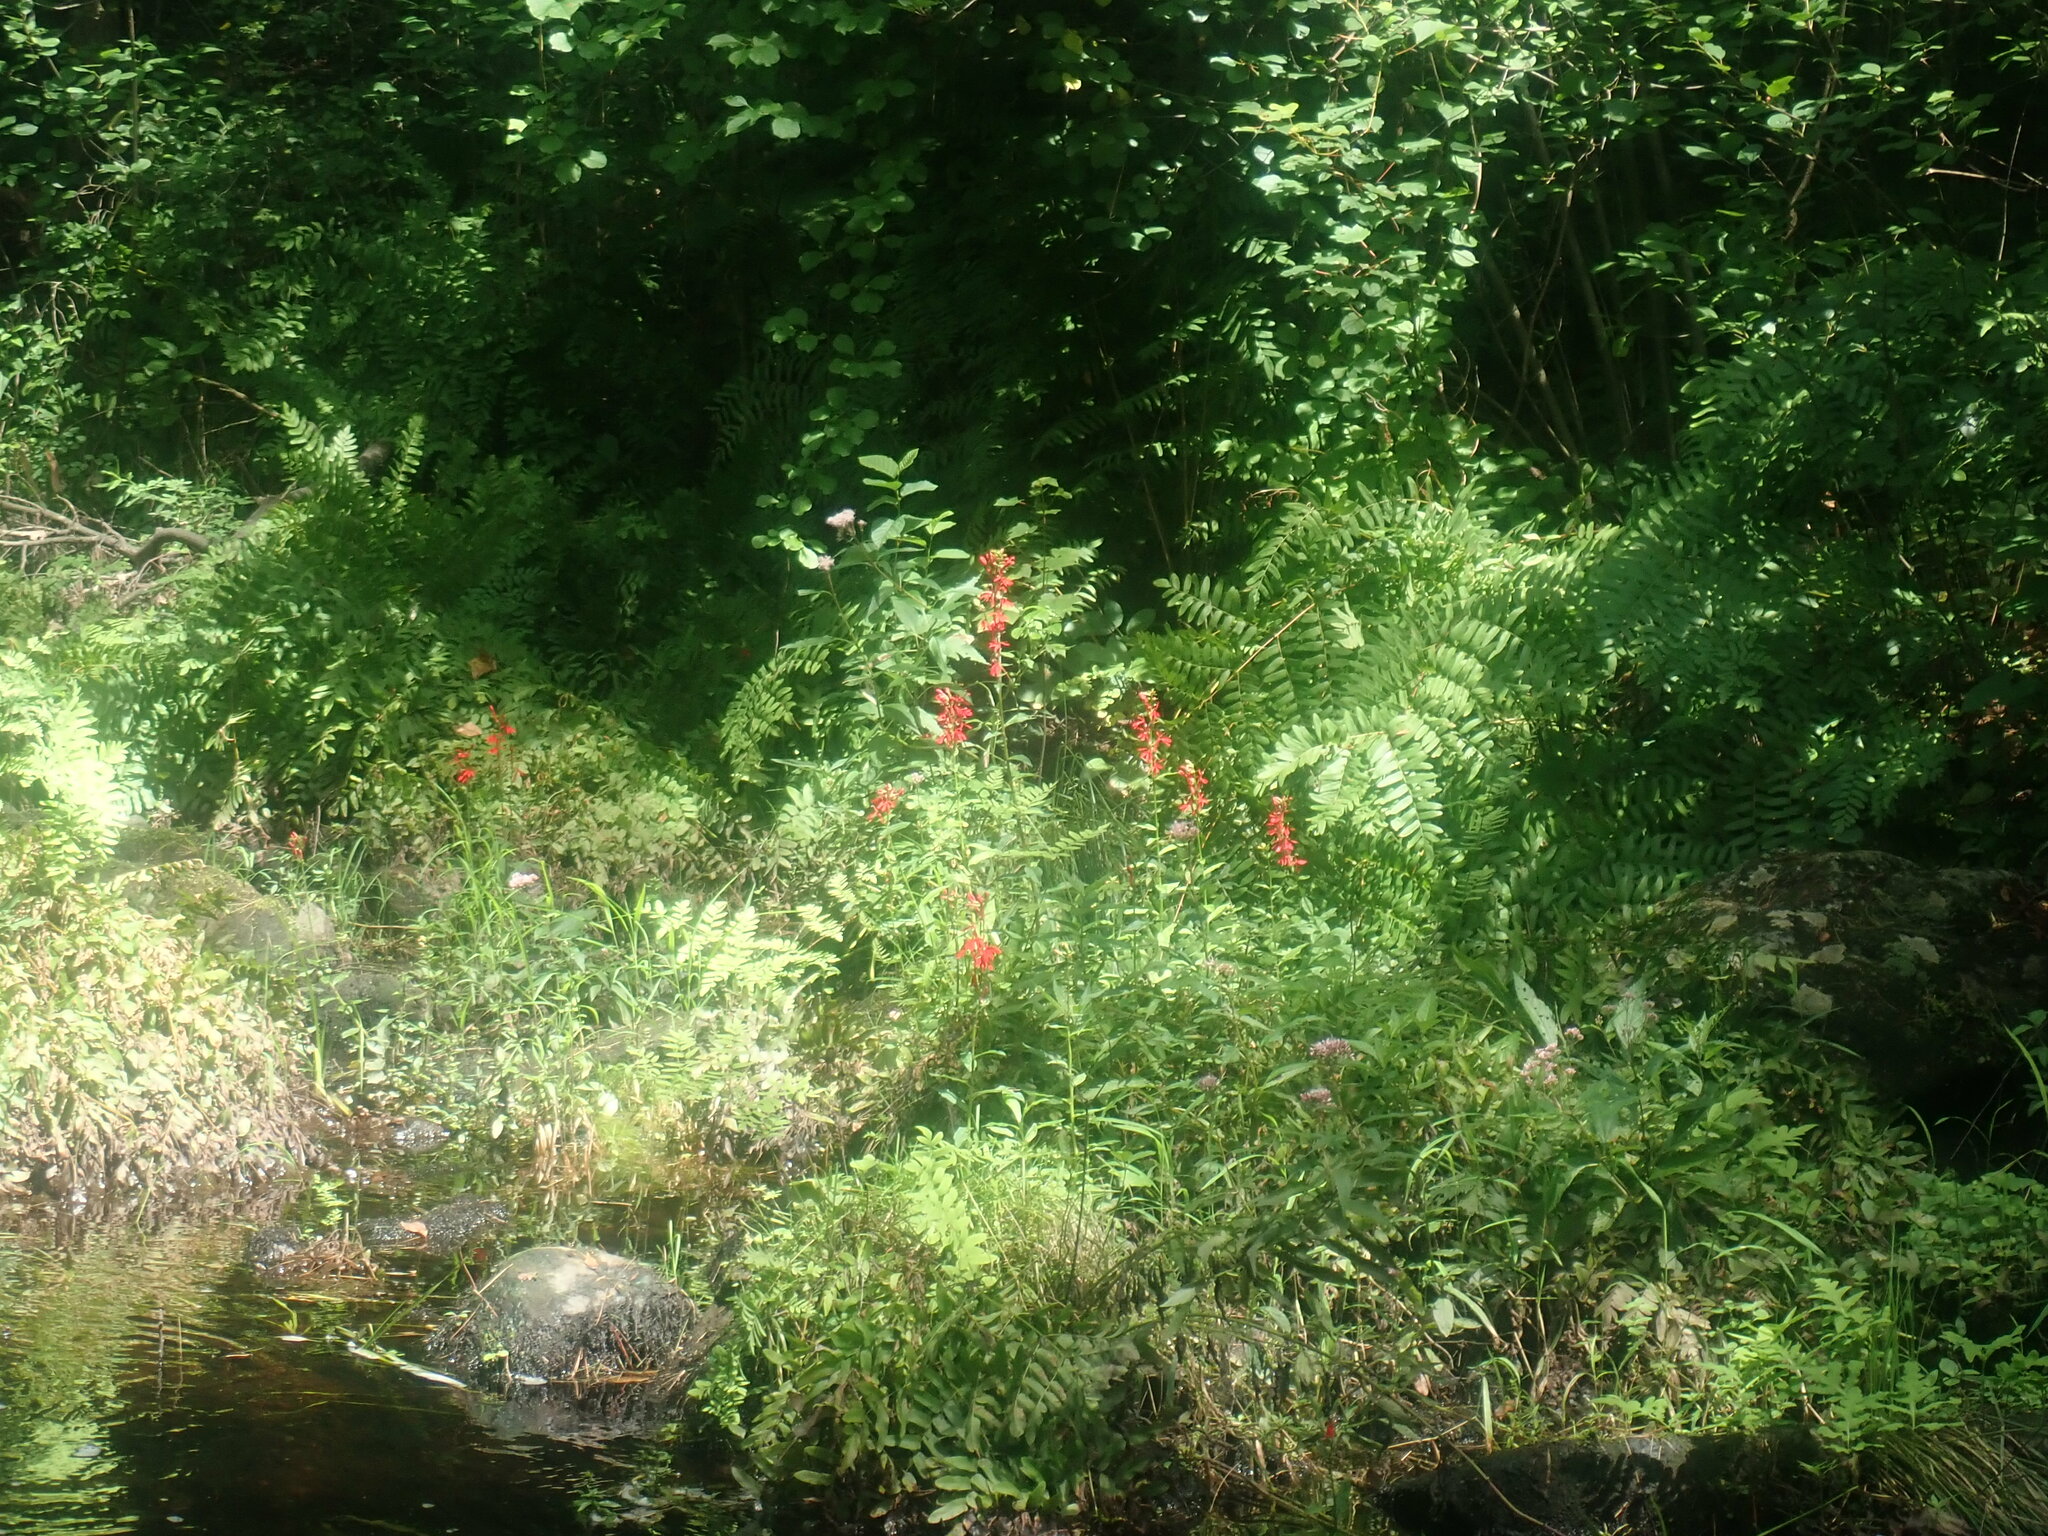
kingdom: Plantae
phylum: Tracheophyta
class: Magnoliopsida
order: Asterales
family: Campanulaceae
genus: Lobelia
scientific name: Lobelia cardinalis
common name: Cardinal flower
